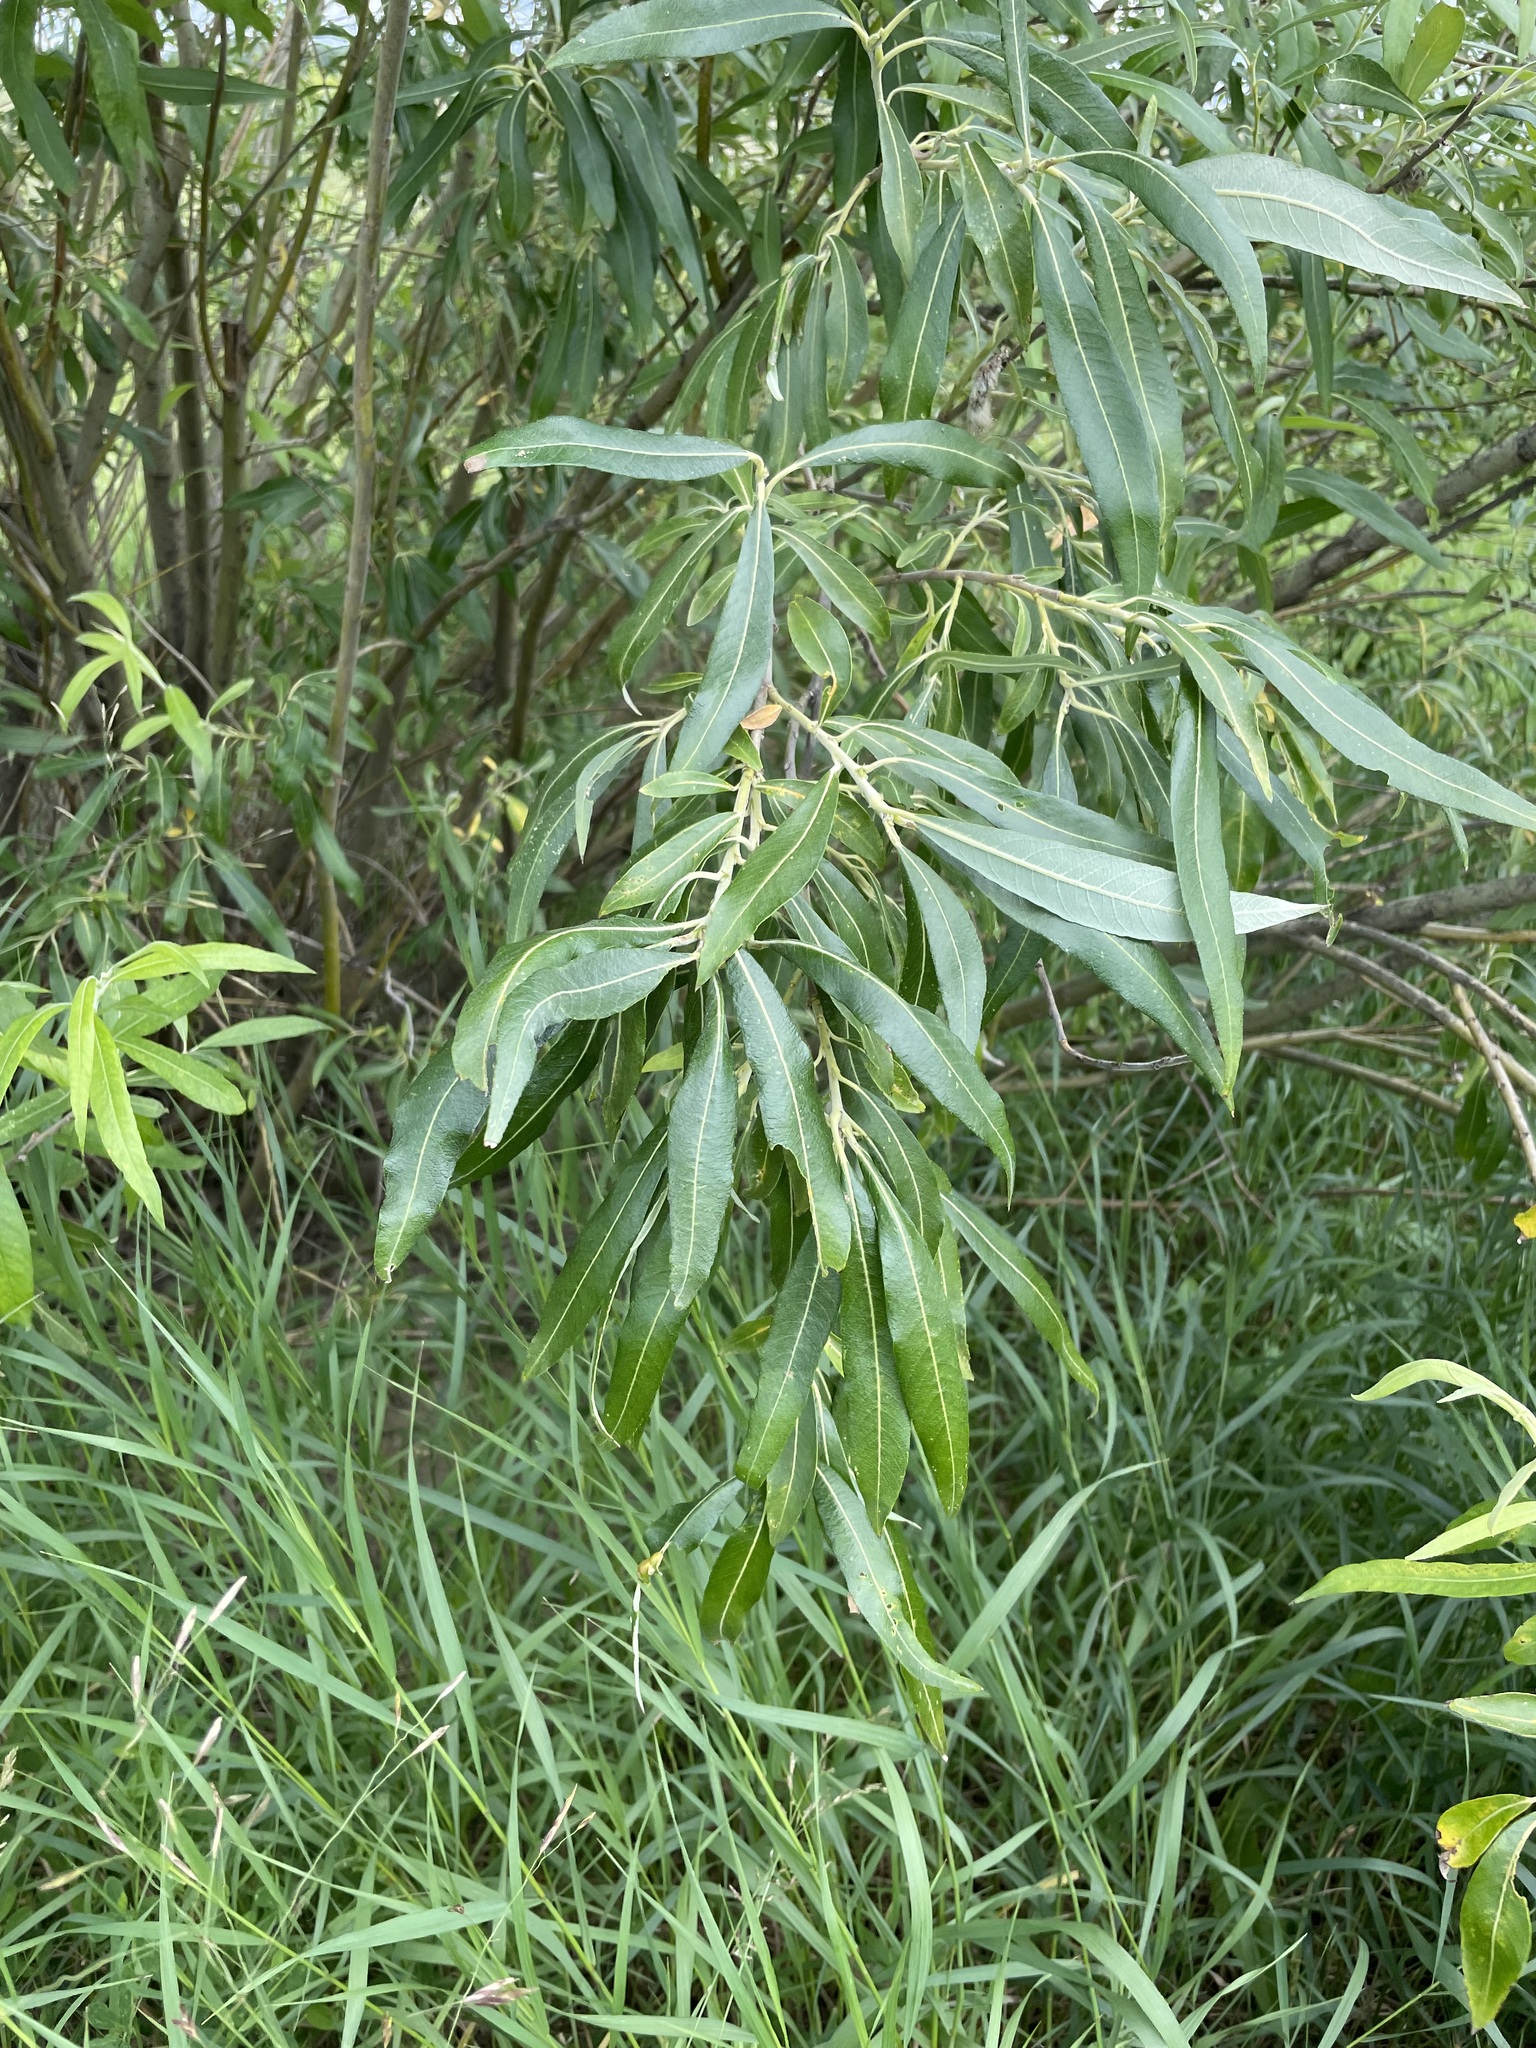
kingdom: Plantae
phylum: Tracheophyta
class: Magnoliopsida
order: Malpighiales
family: Salicaceae
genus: Salix
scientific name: Salix gmelinii
